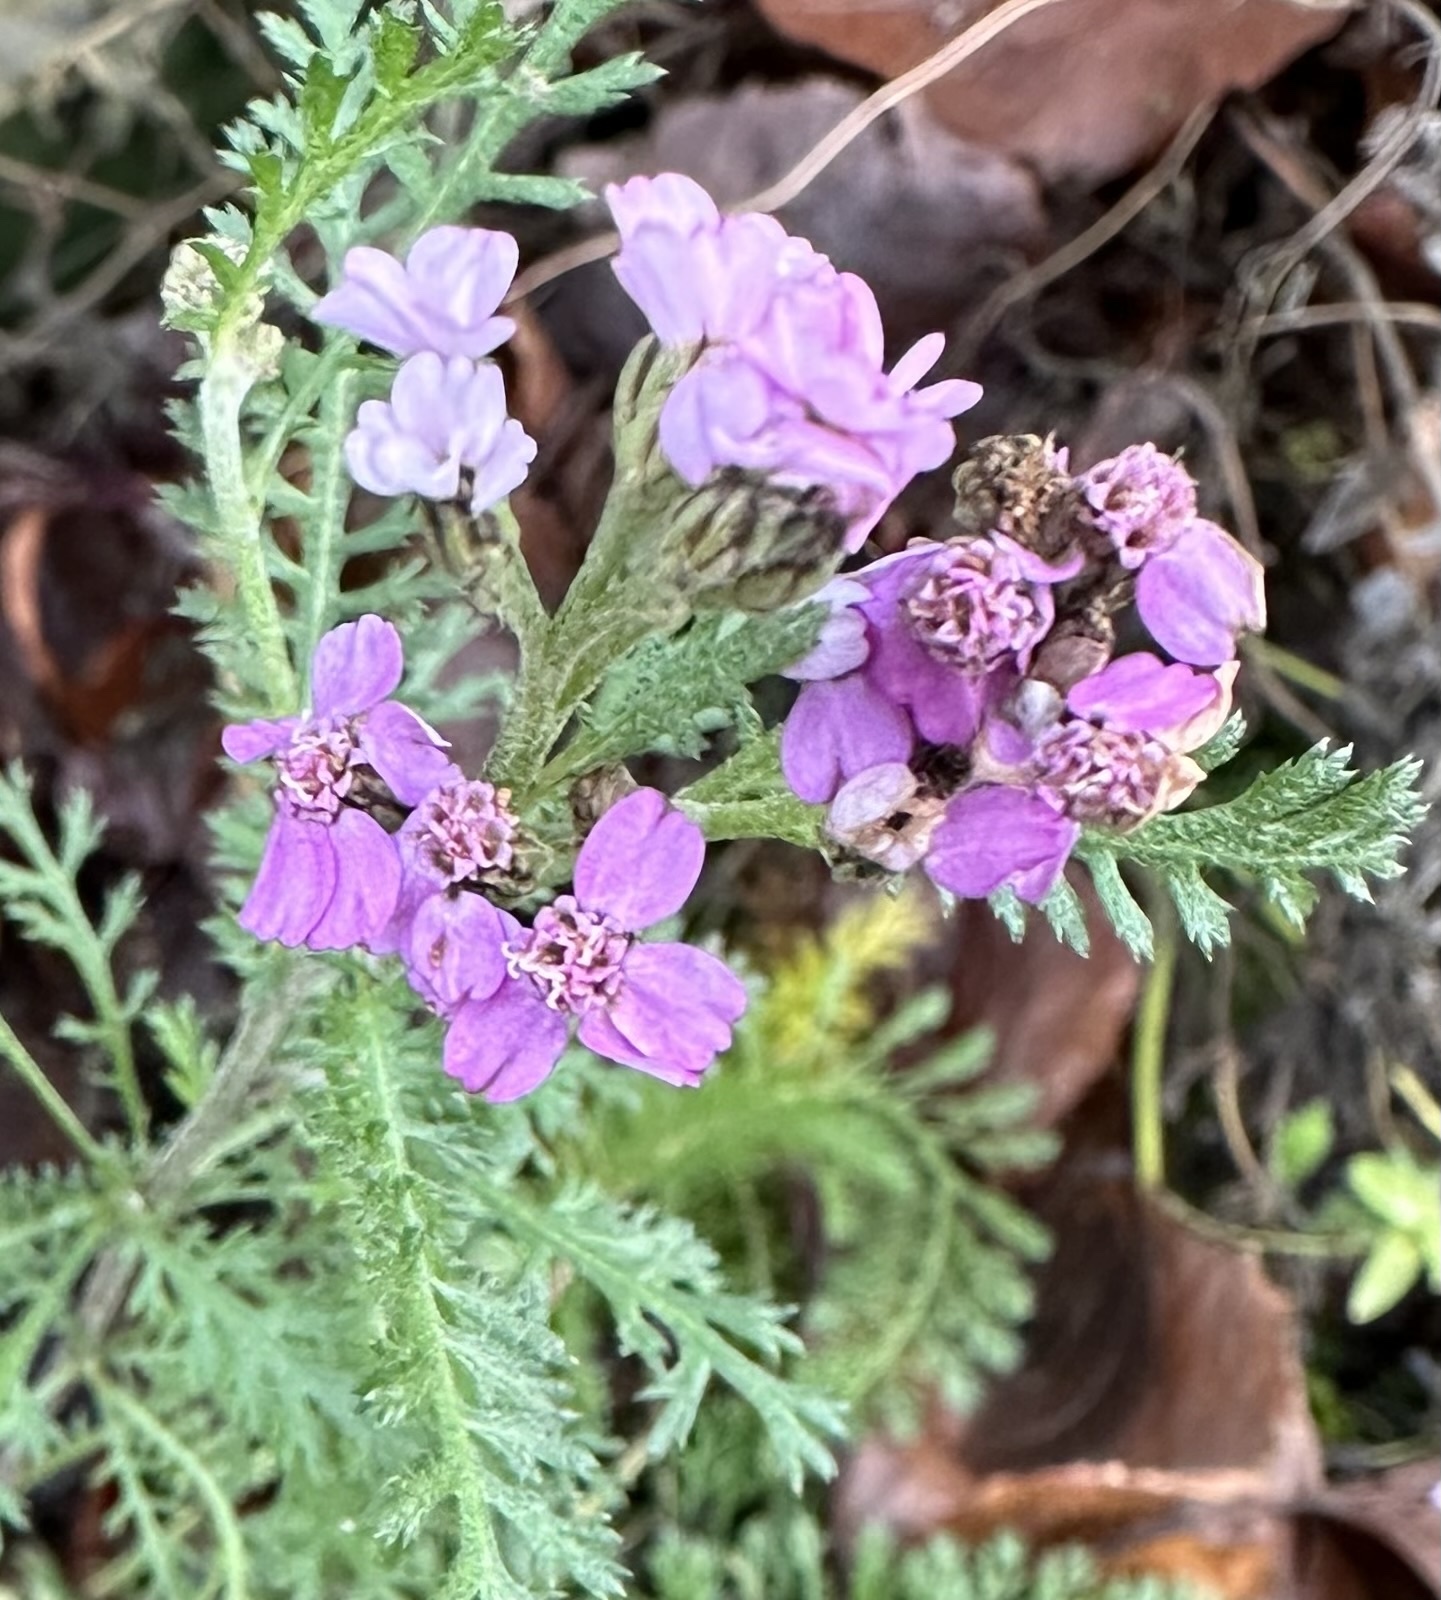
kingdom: Plantae
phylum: Tracheophyta
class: Magnoliopsida
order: Asterales
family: Asteraceae
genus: Achillea
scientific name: Achillea millefolium
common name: Yarrow
